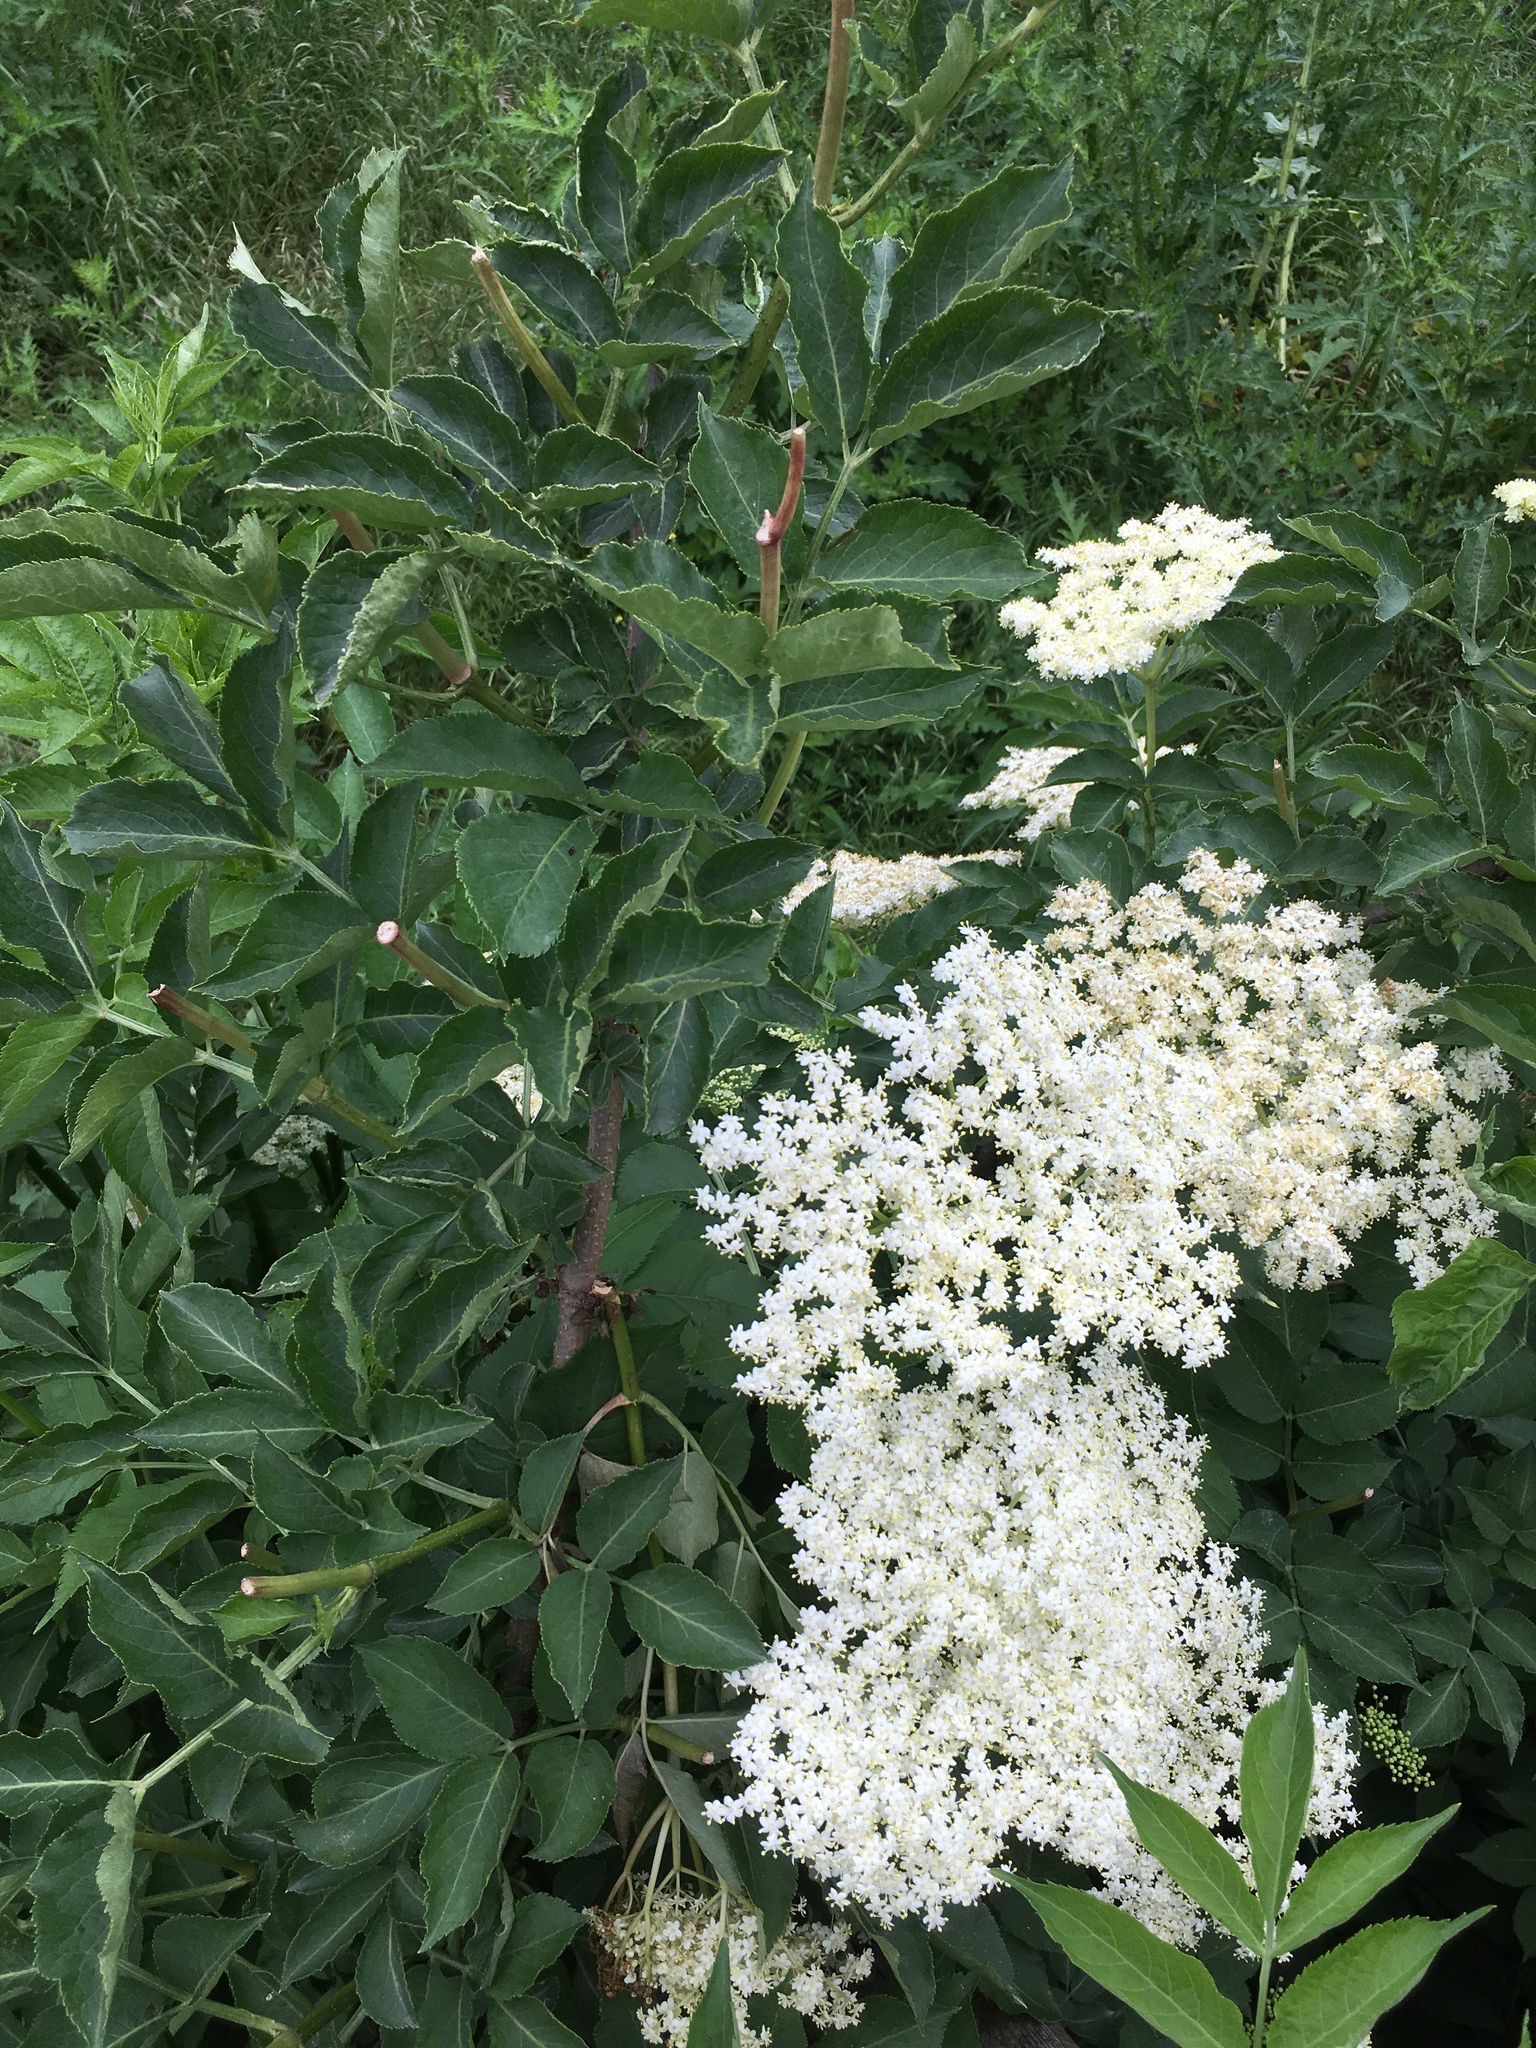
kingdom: Plantae
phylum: Tracheophyta
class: Magnoliopsida
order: Dipsacales
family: Viburnaceae
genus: Sambucus
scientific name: Sambucus nigra
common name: Elder
